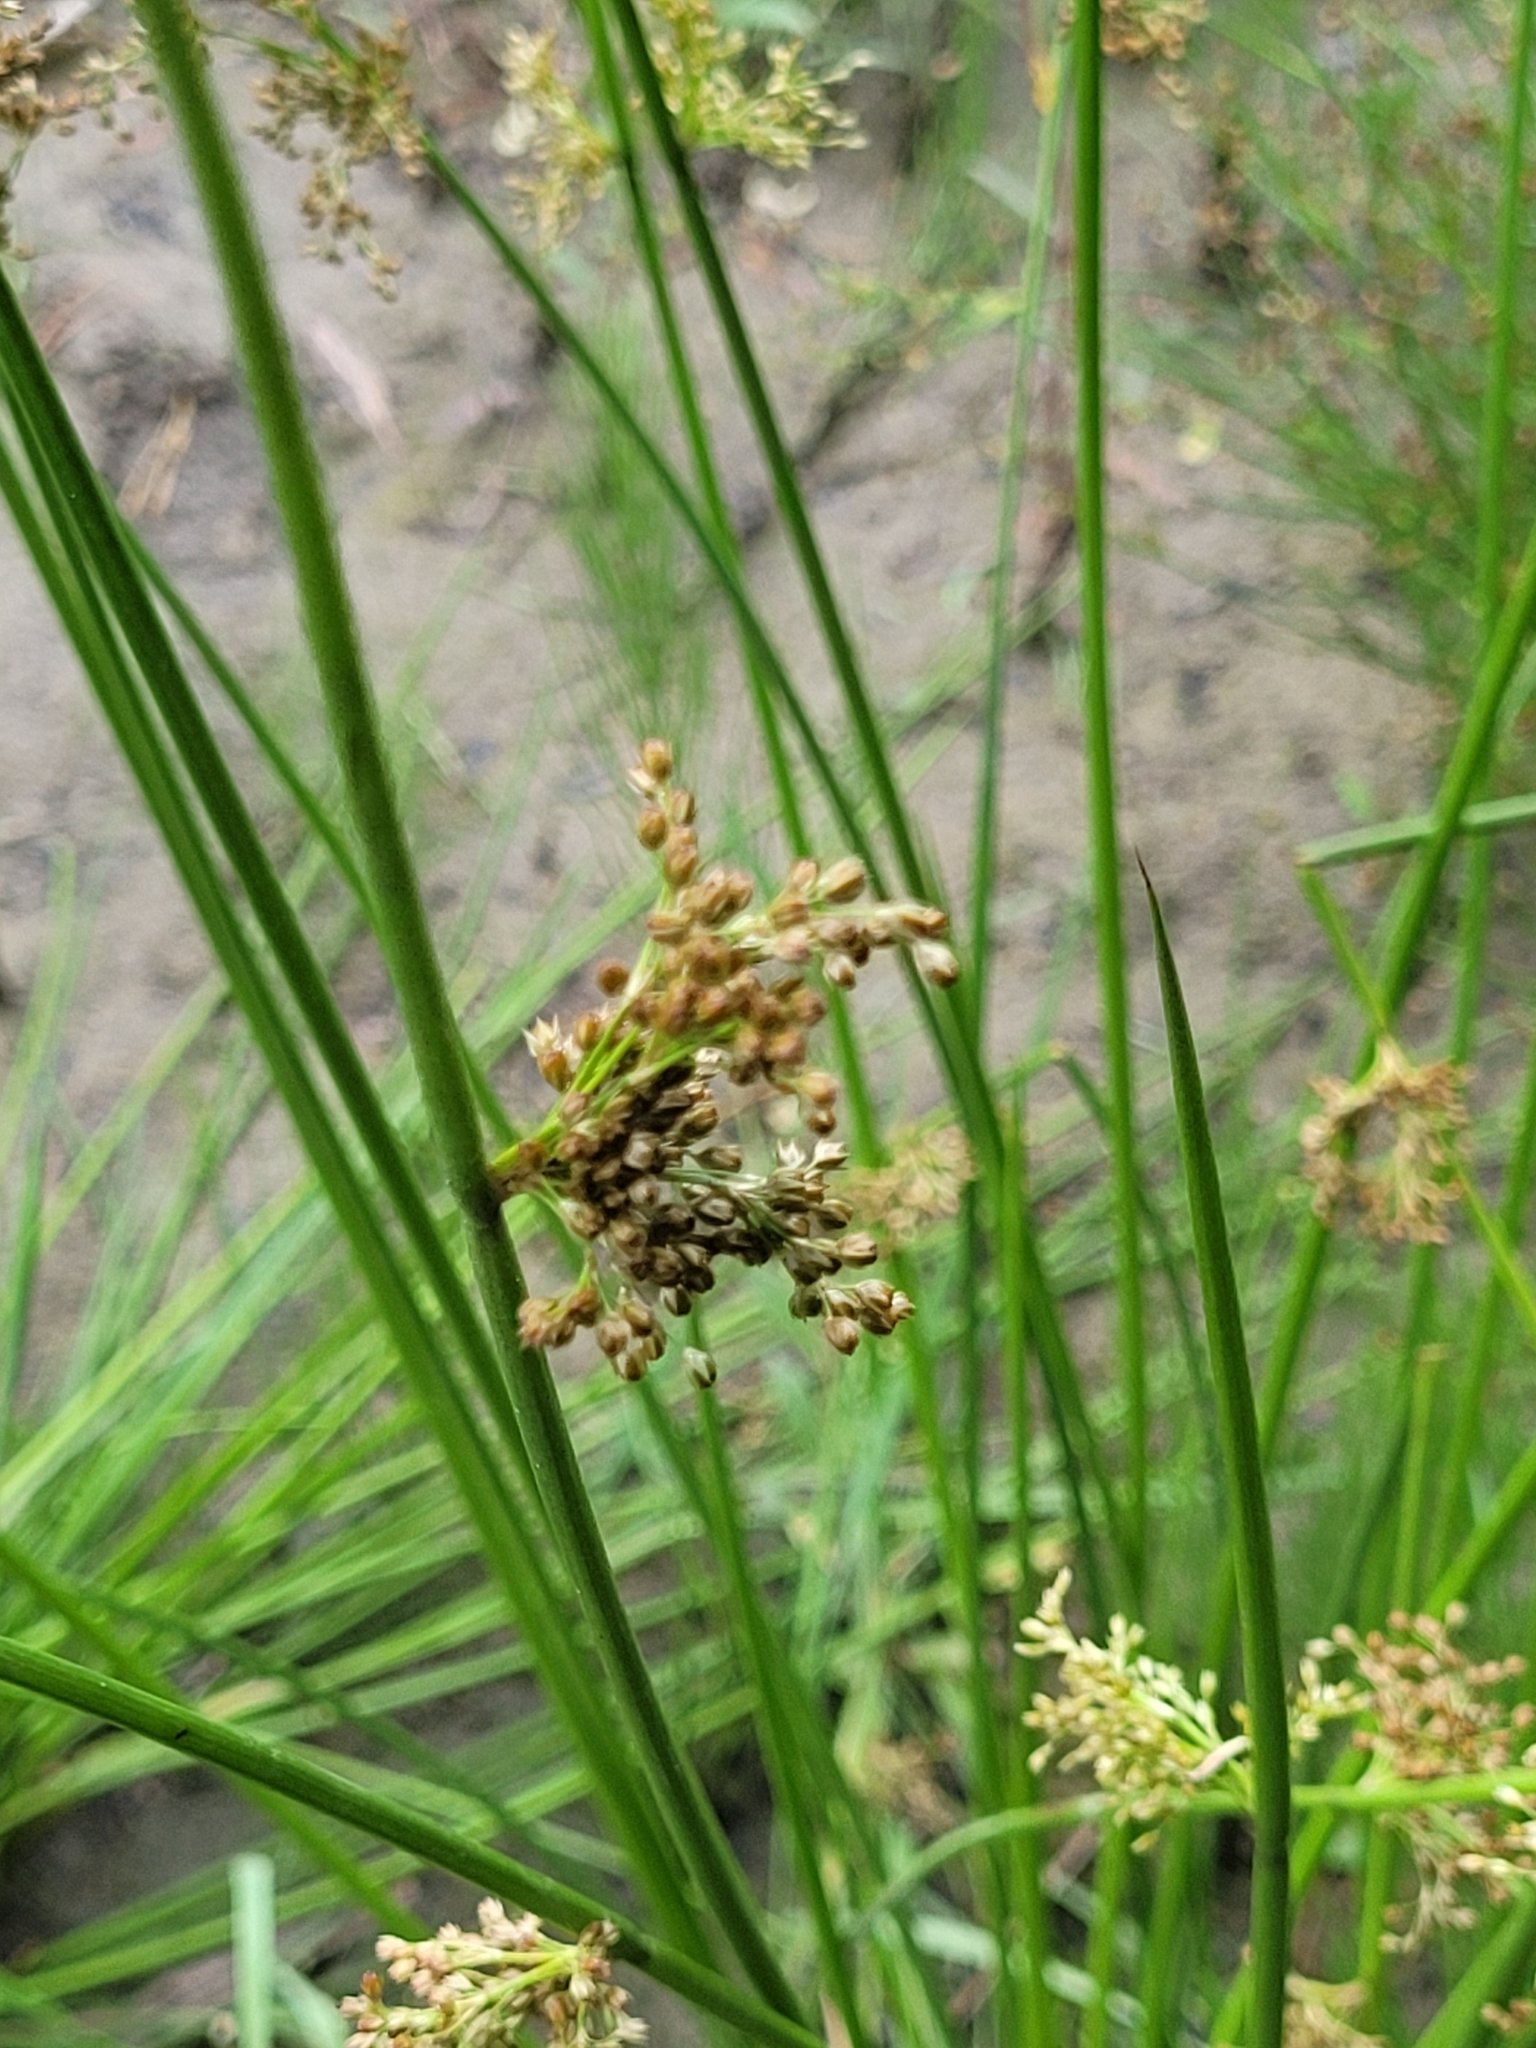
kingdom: Plantae
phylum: Tracheophyta
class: Liliopsida
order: Poales
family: Juncaceae
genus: Juncus
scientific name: Juncus effusus
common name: Soft rush
